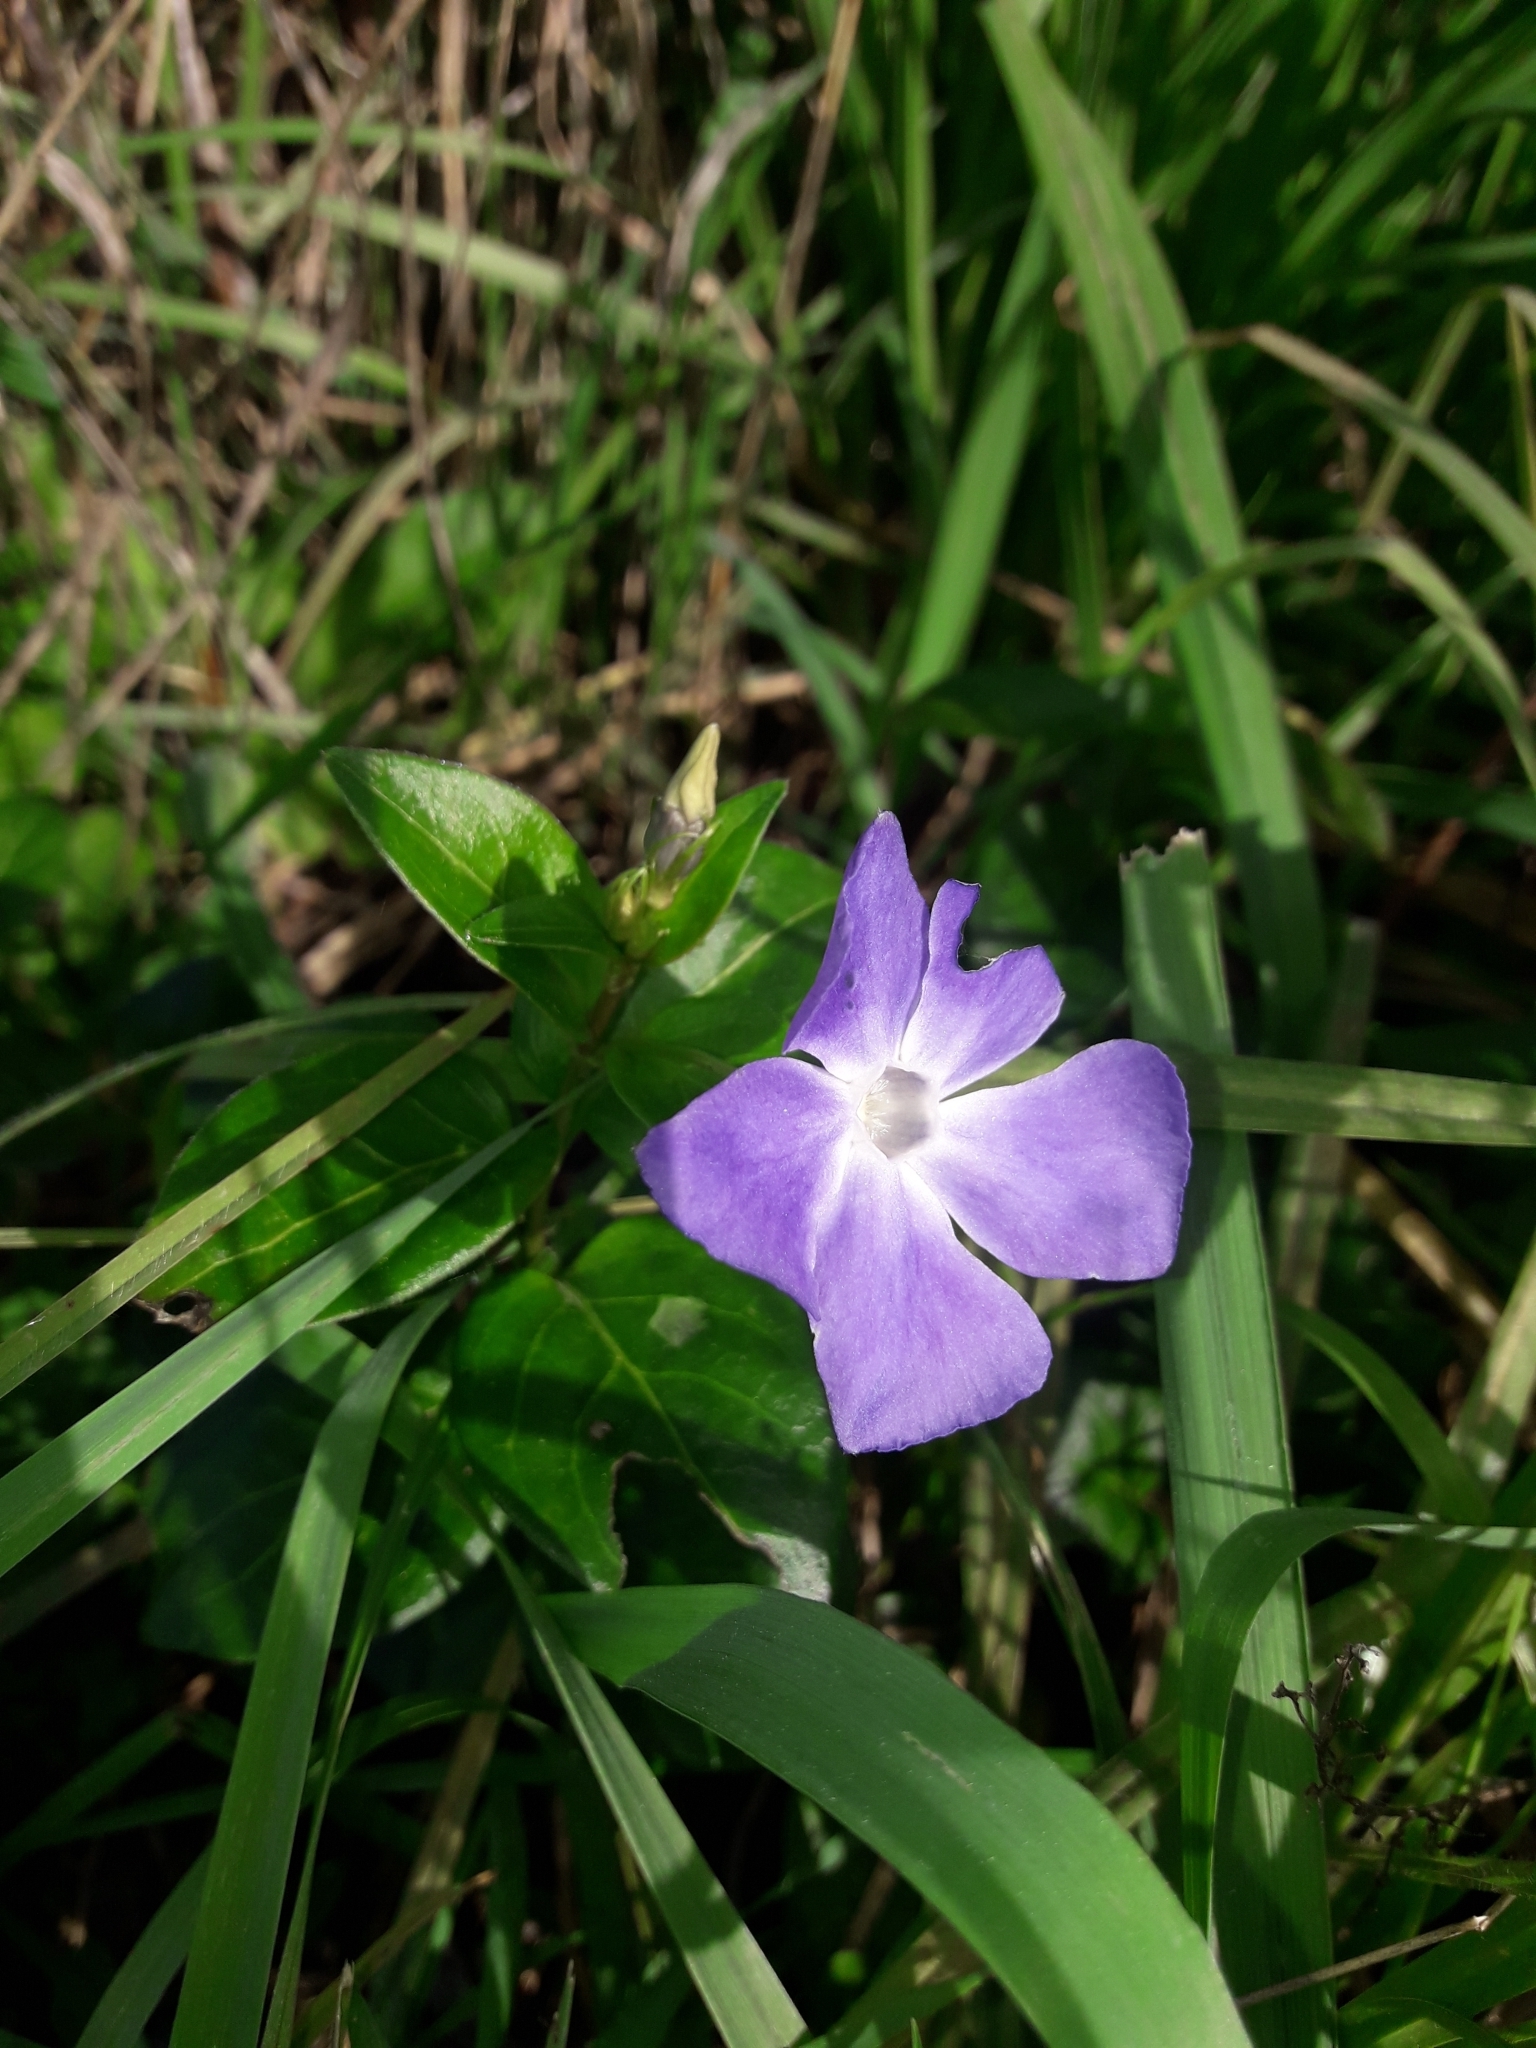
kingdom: Plantae
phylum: Tracheophyta
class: Magnoliopsida
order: Gentianales
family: Apocynaceae
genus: Vinca
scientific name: Vinca major
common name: Greater periwinkle
